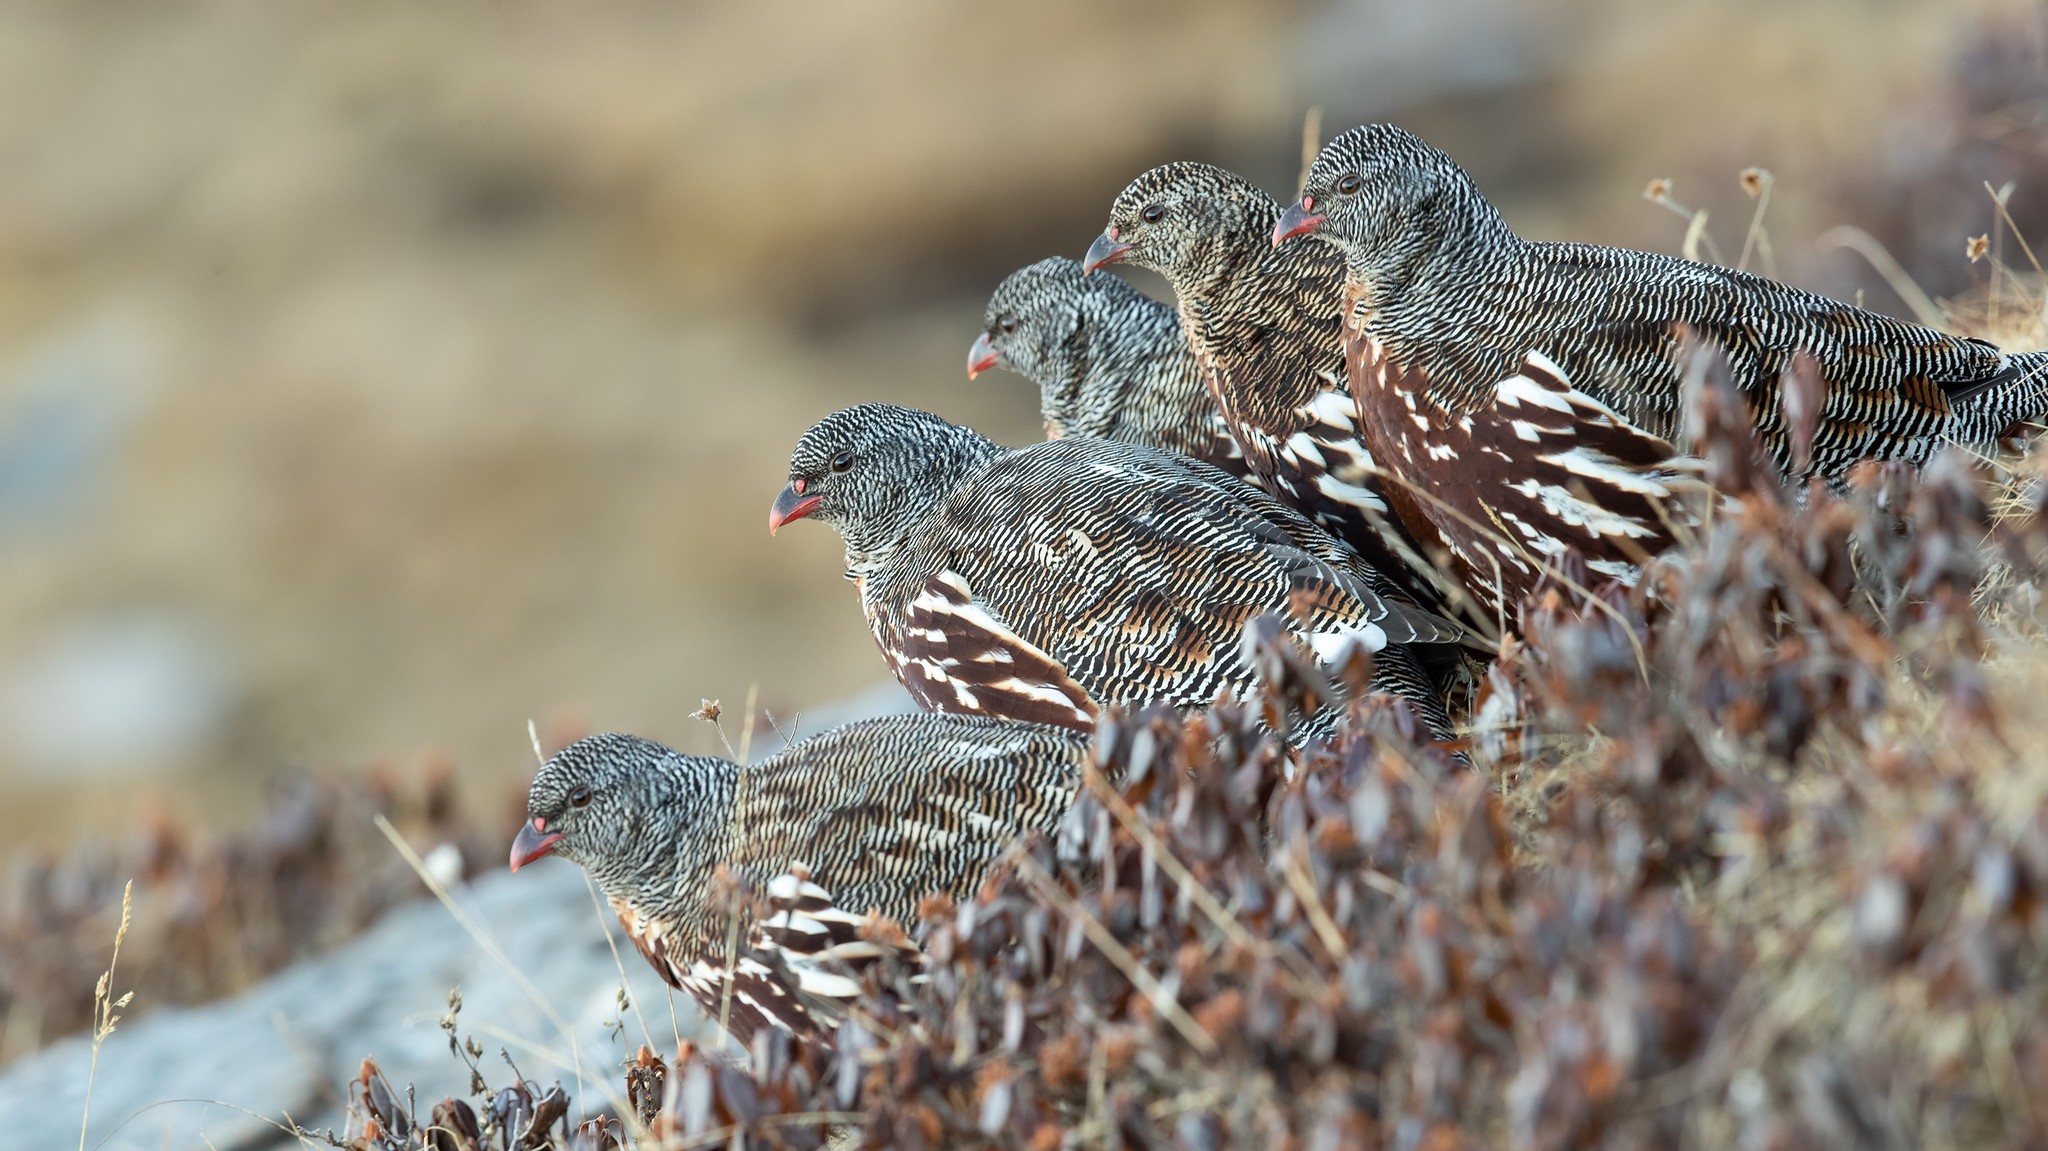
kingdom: Animalia
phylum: Chordata
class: Aves
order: Galliformes
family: Phasianidae
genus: Lerwa
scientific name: Lerwa lerwa
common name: Snow partridge
